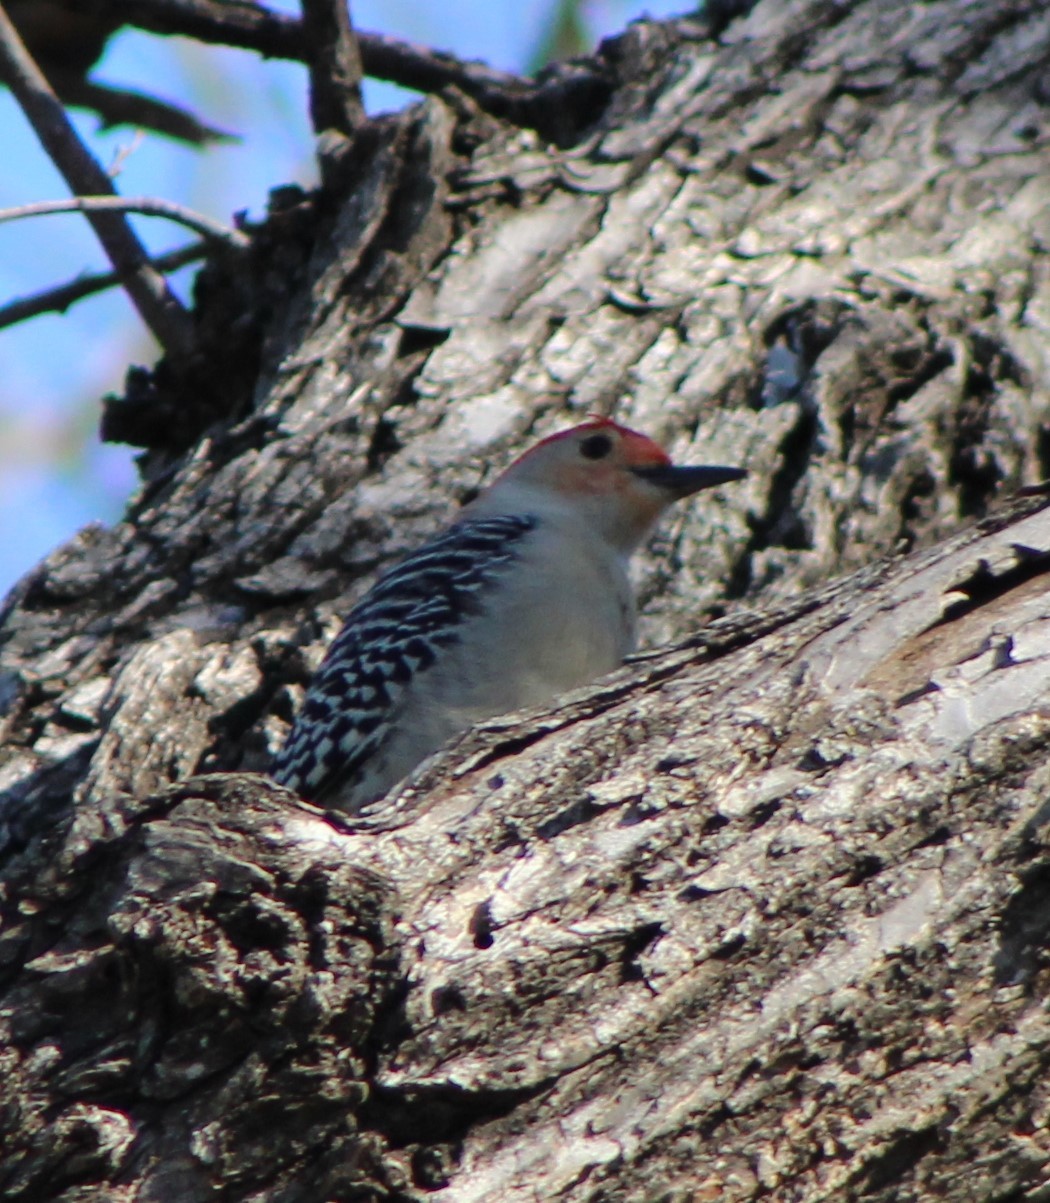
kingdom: Animalia
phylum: Chordata
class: Aves
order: Piciformes
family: Picidae
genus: Melanerpes
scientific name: Melanerpes carolinus
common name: Red-bellied woodpecker
